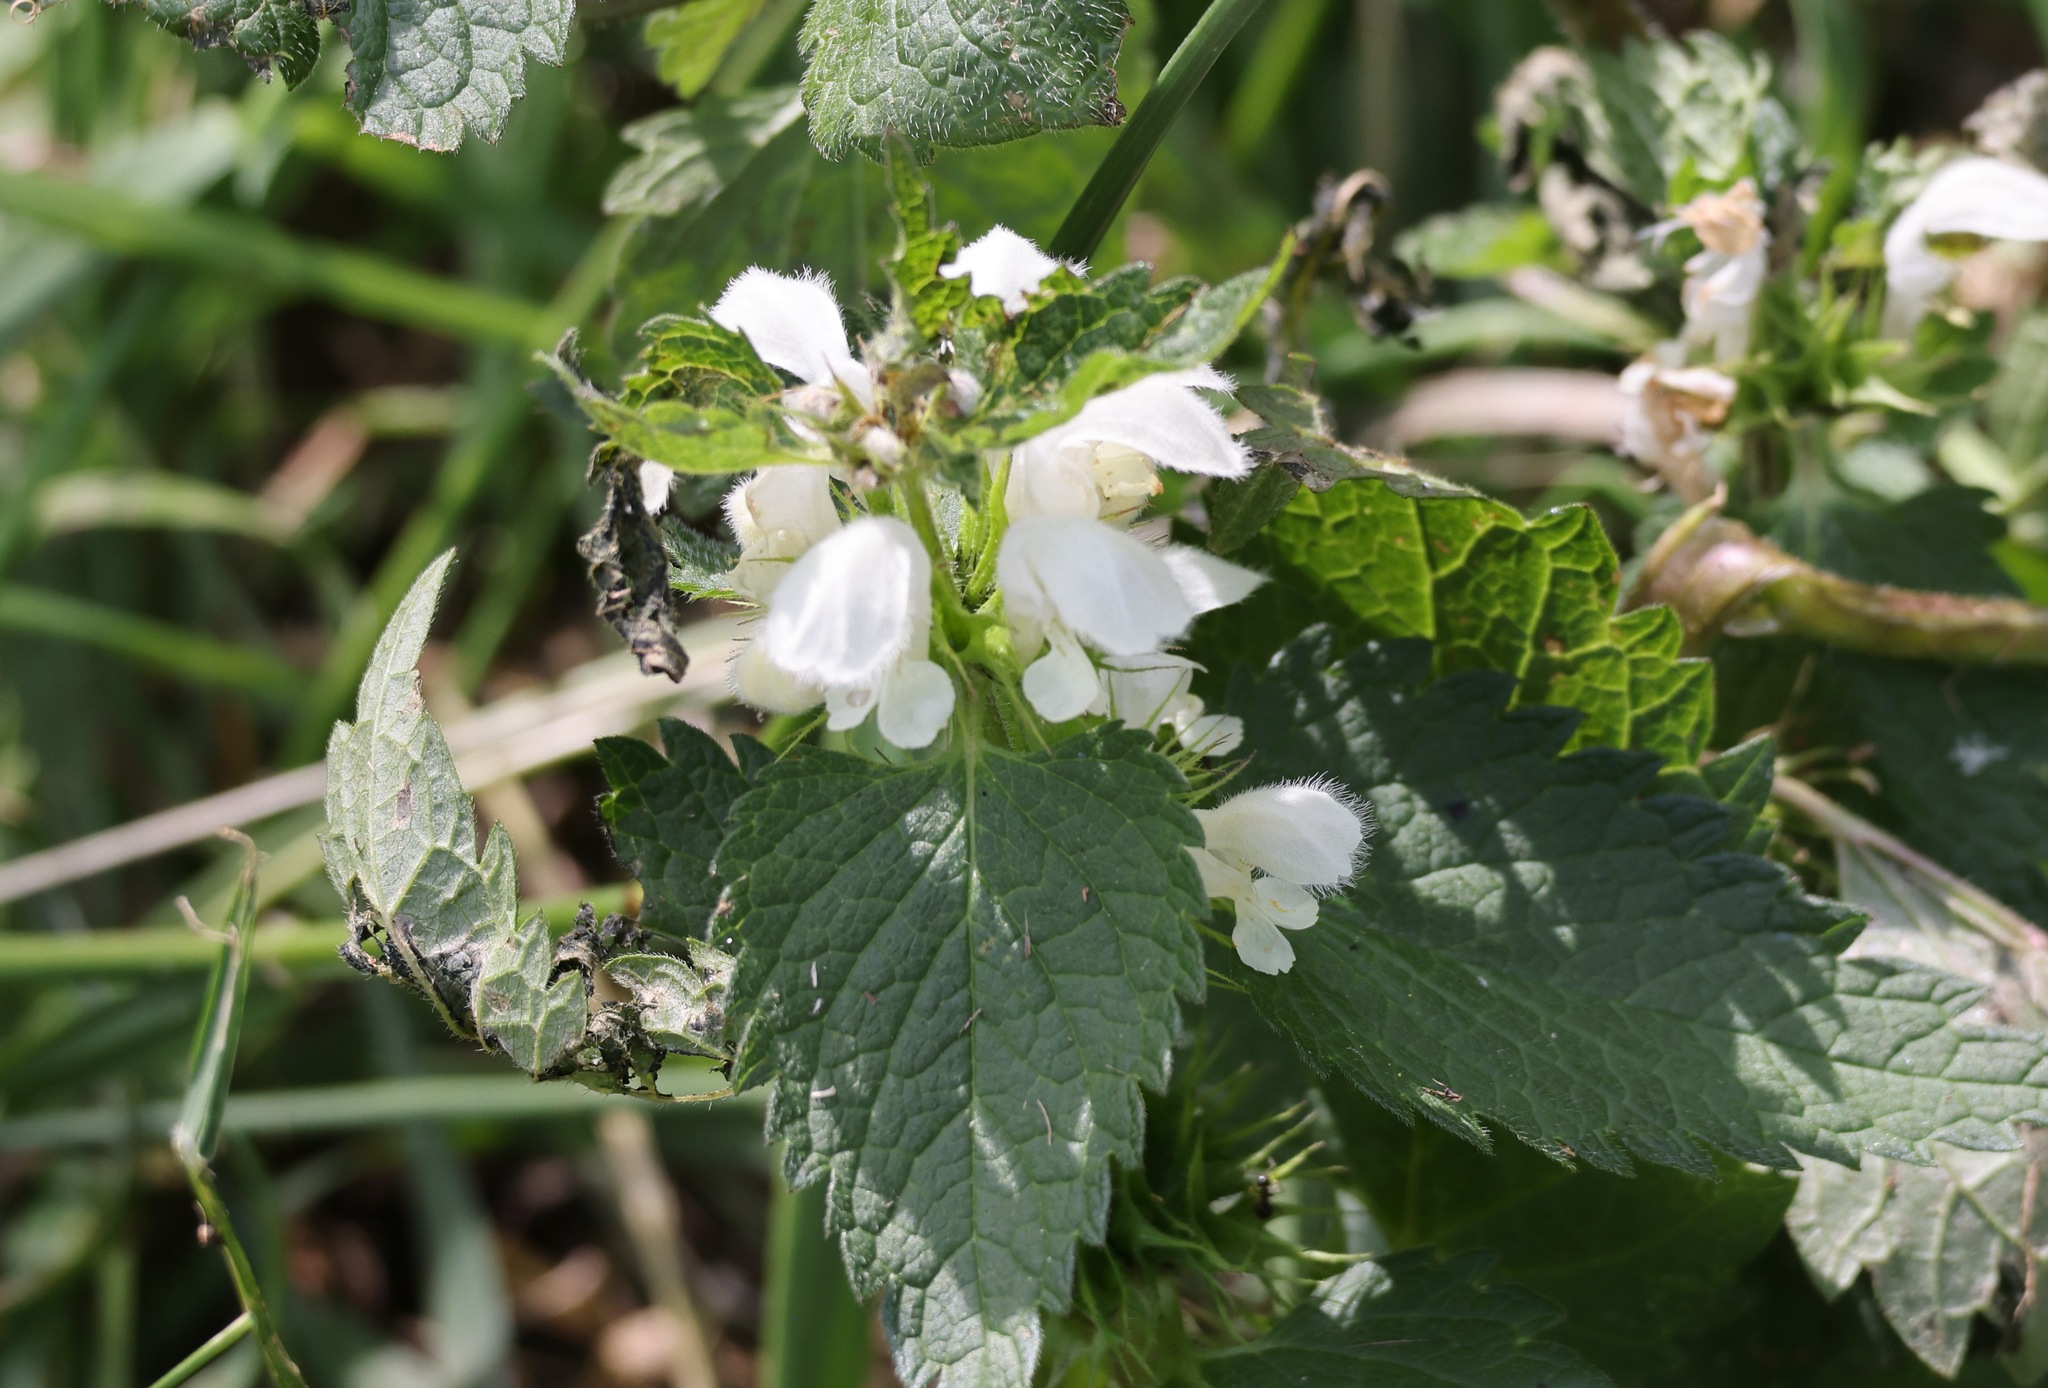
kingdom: Plantae
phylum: Tracheophyta
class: Magnoliopsida
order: Lamiales
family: Lamiaceae
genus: Lamium
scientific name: Lamium album
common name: White dead-nettle
